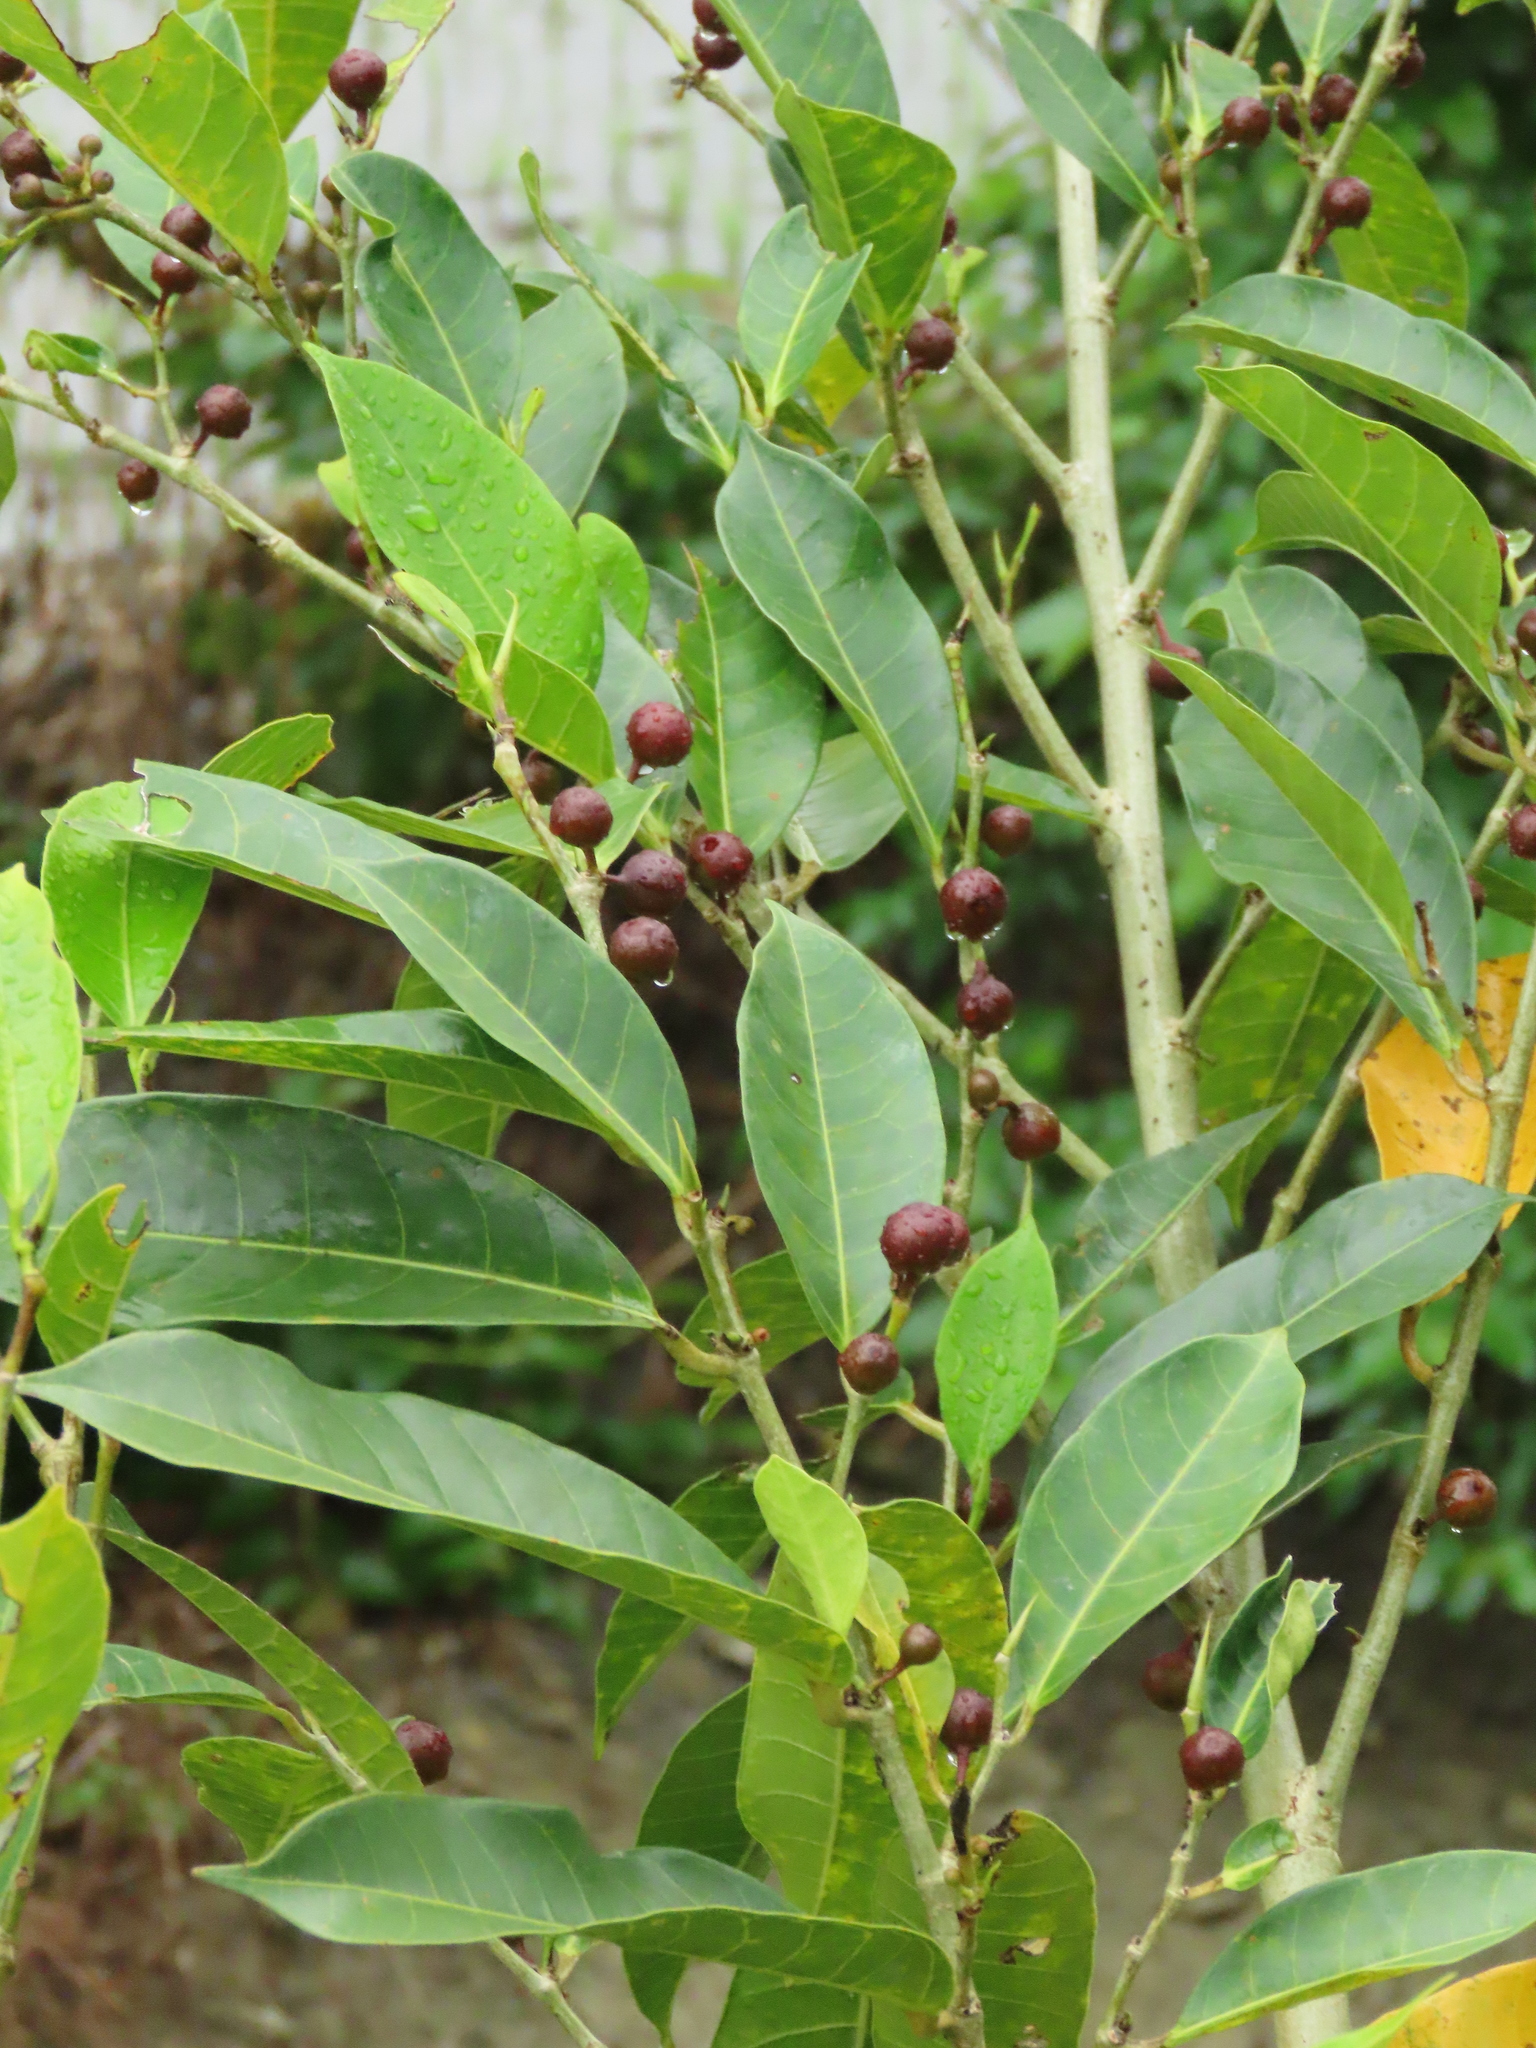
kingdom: Plantae
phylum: Tracheophyta
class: Magnoliopsida
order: Rosales
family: Moraceae
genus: Ficus
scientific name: Ficus virgata
